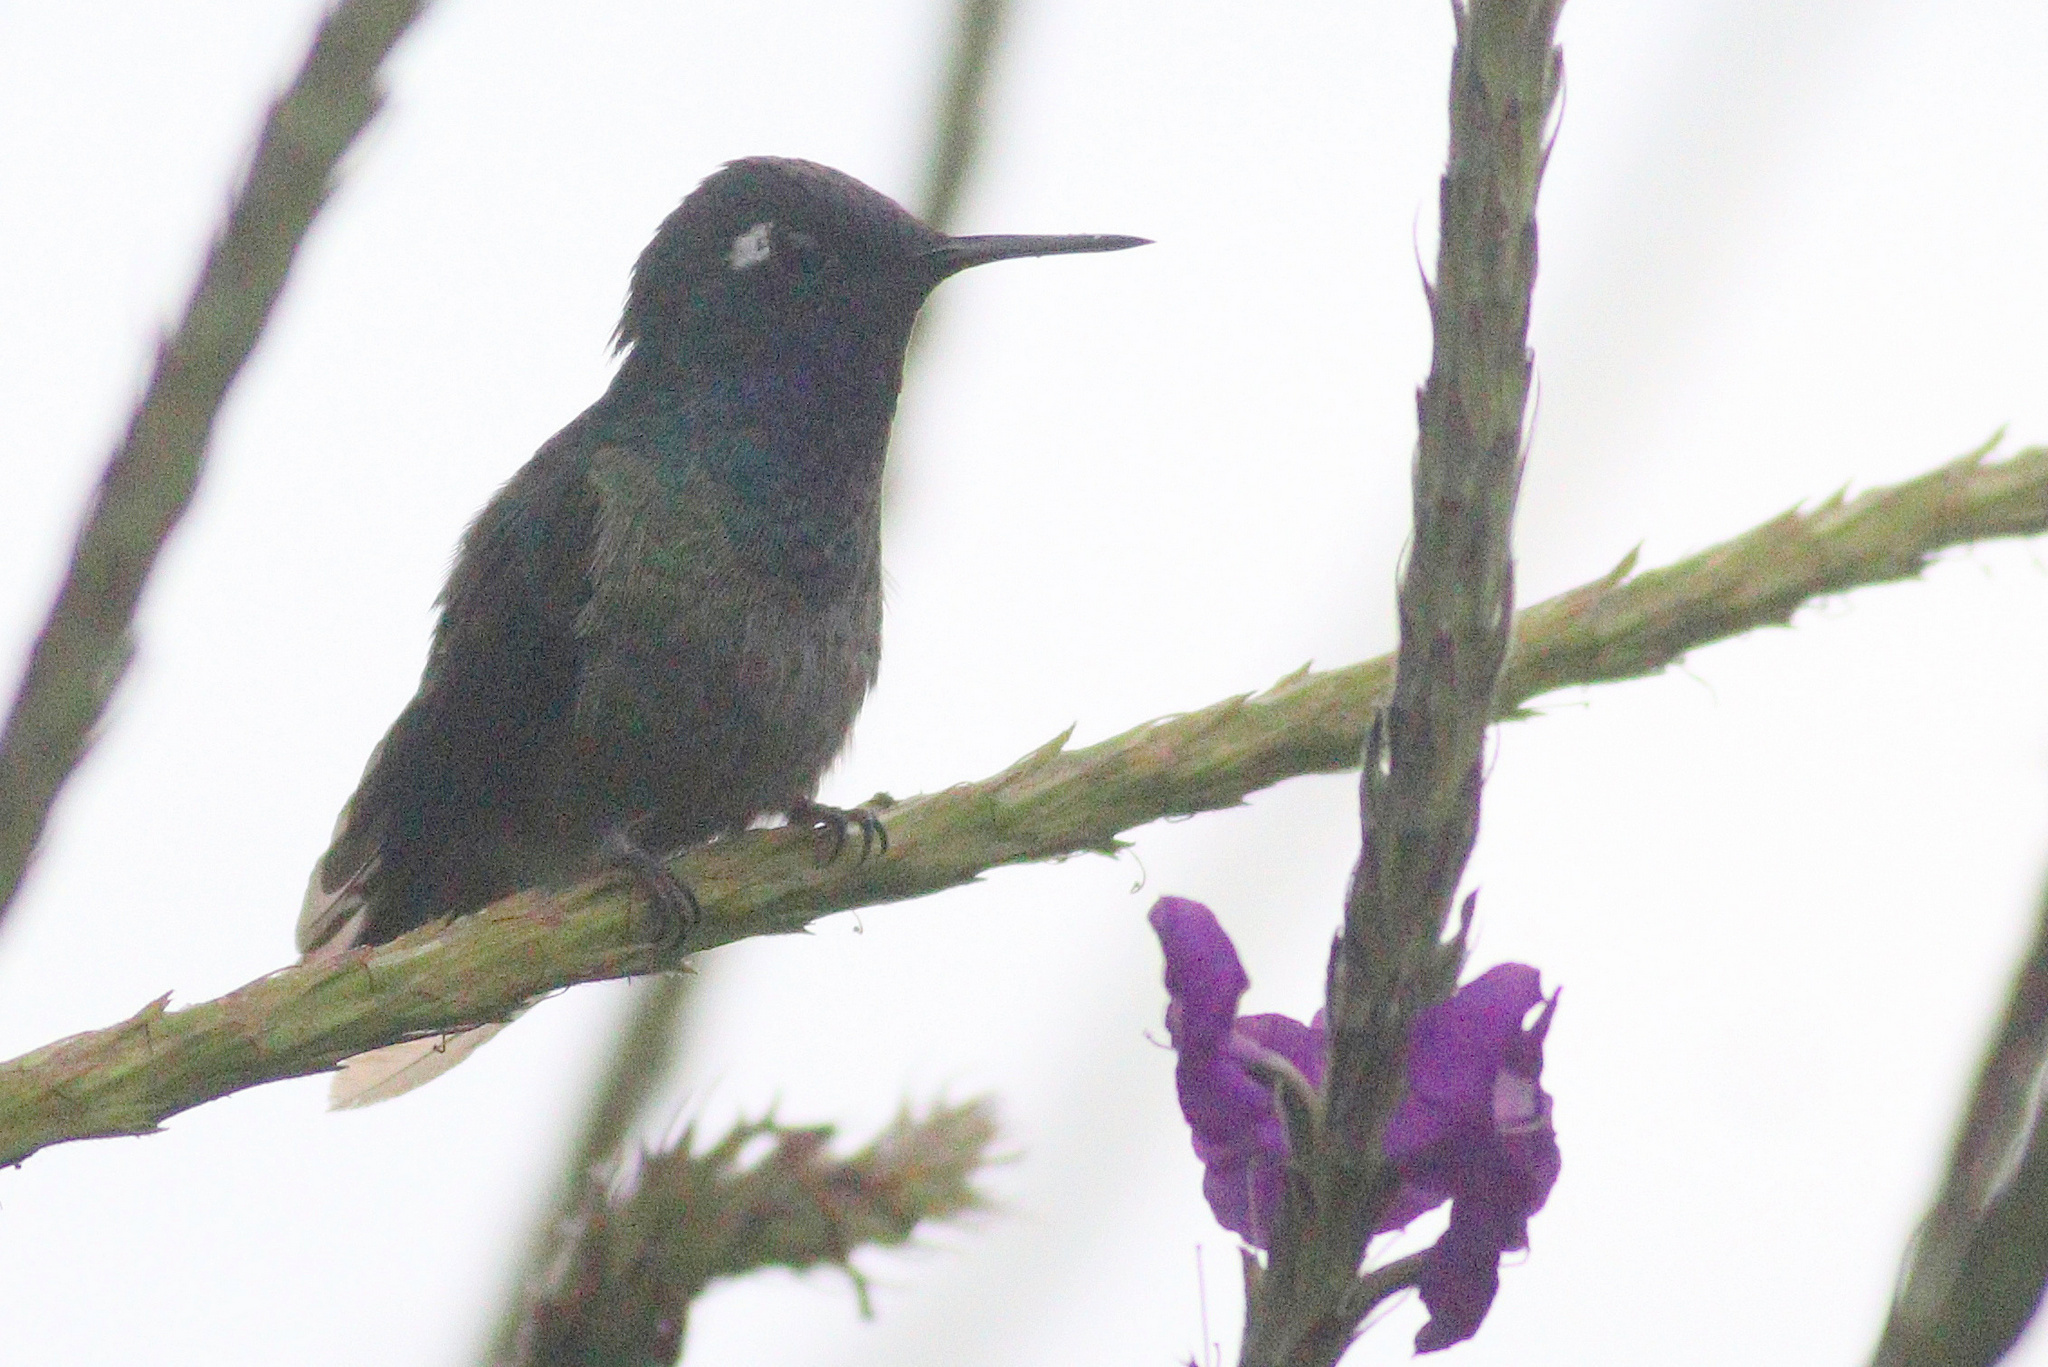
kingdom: Animalia
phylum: Chordata
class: Aves
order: Apodiformes
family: Trochilidae
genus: Klais
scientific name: Klais guimeti
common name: Violet-headed hummingbird
